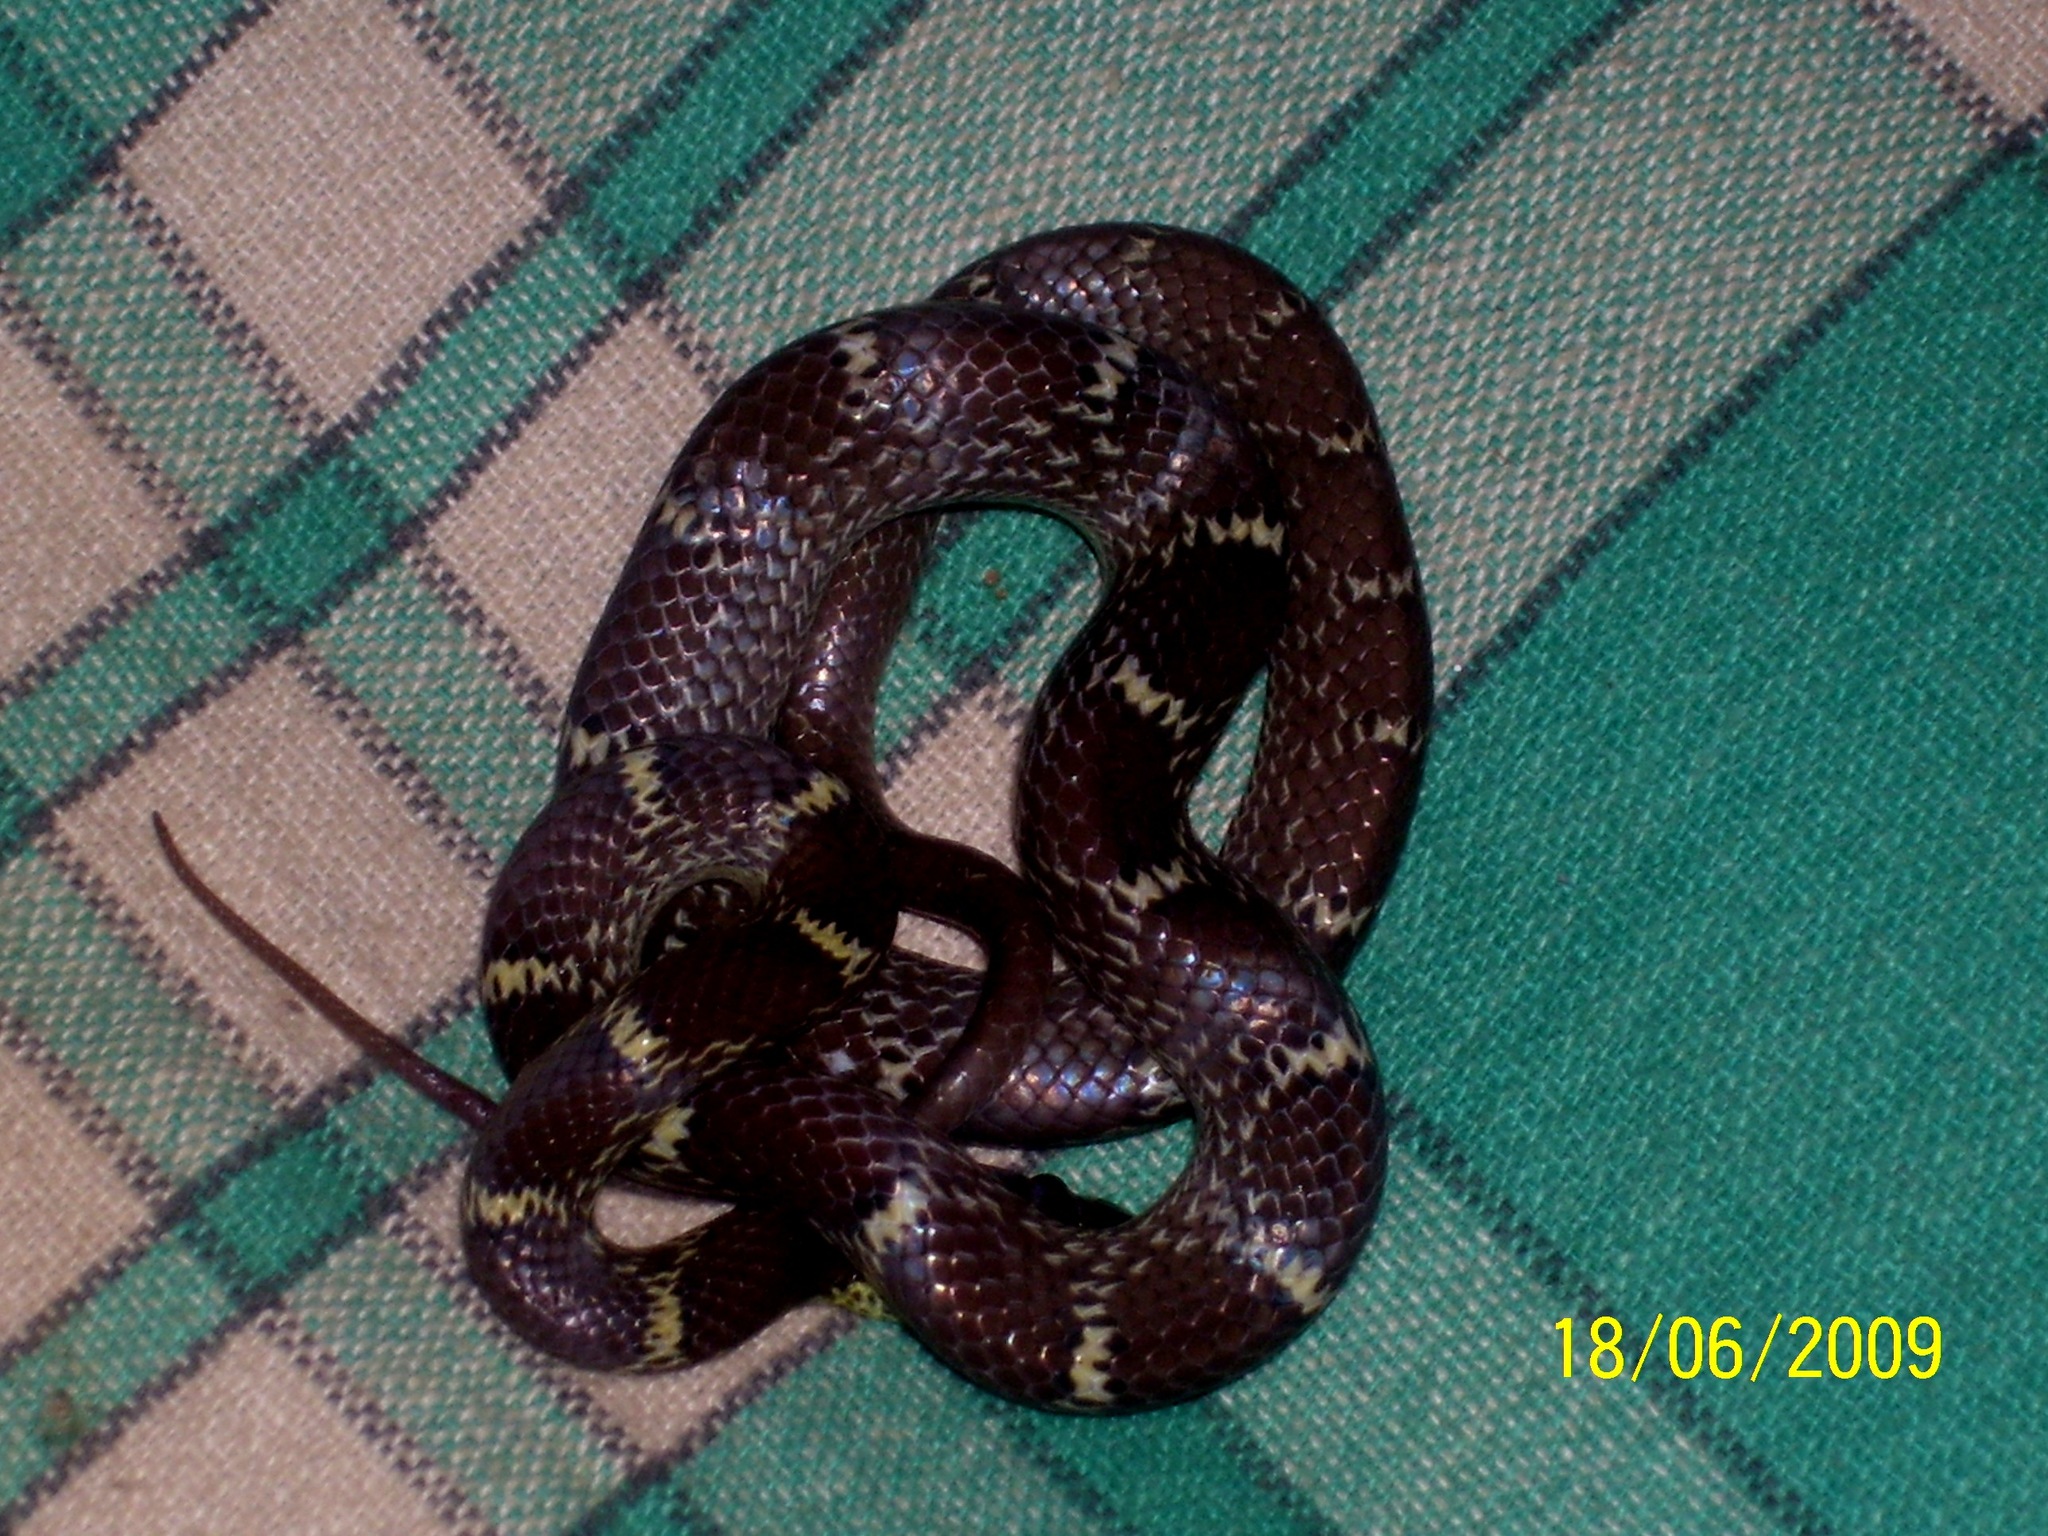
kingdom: Animalia
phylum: Chordata
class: Squamata
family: Colubridae
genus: Lycodon
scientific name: Lycodon aulicus
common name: Common wolf snake
